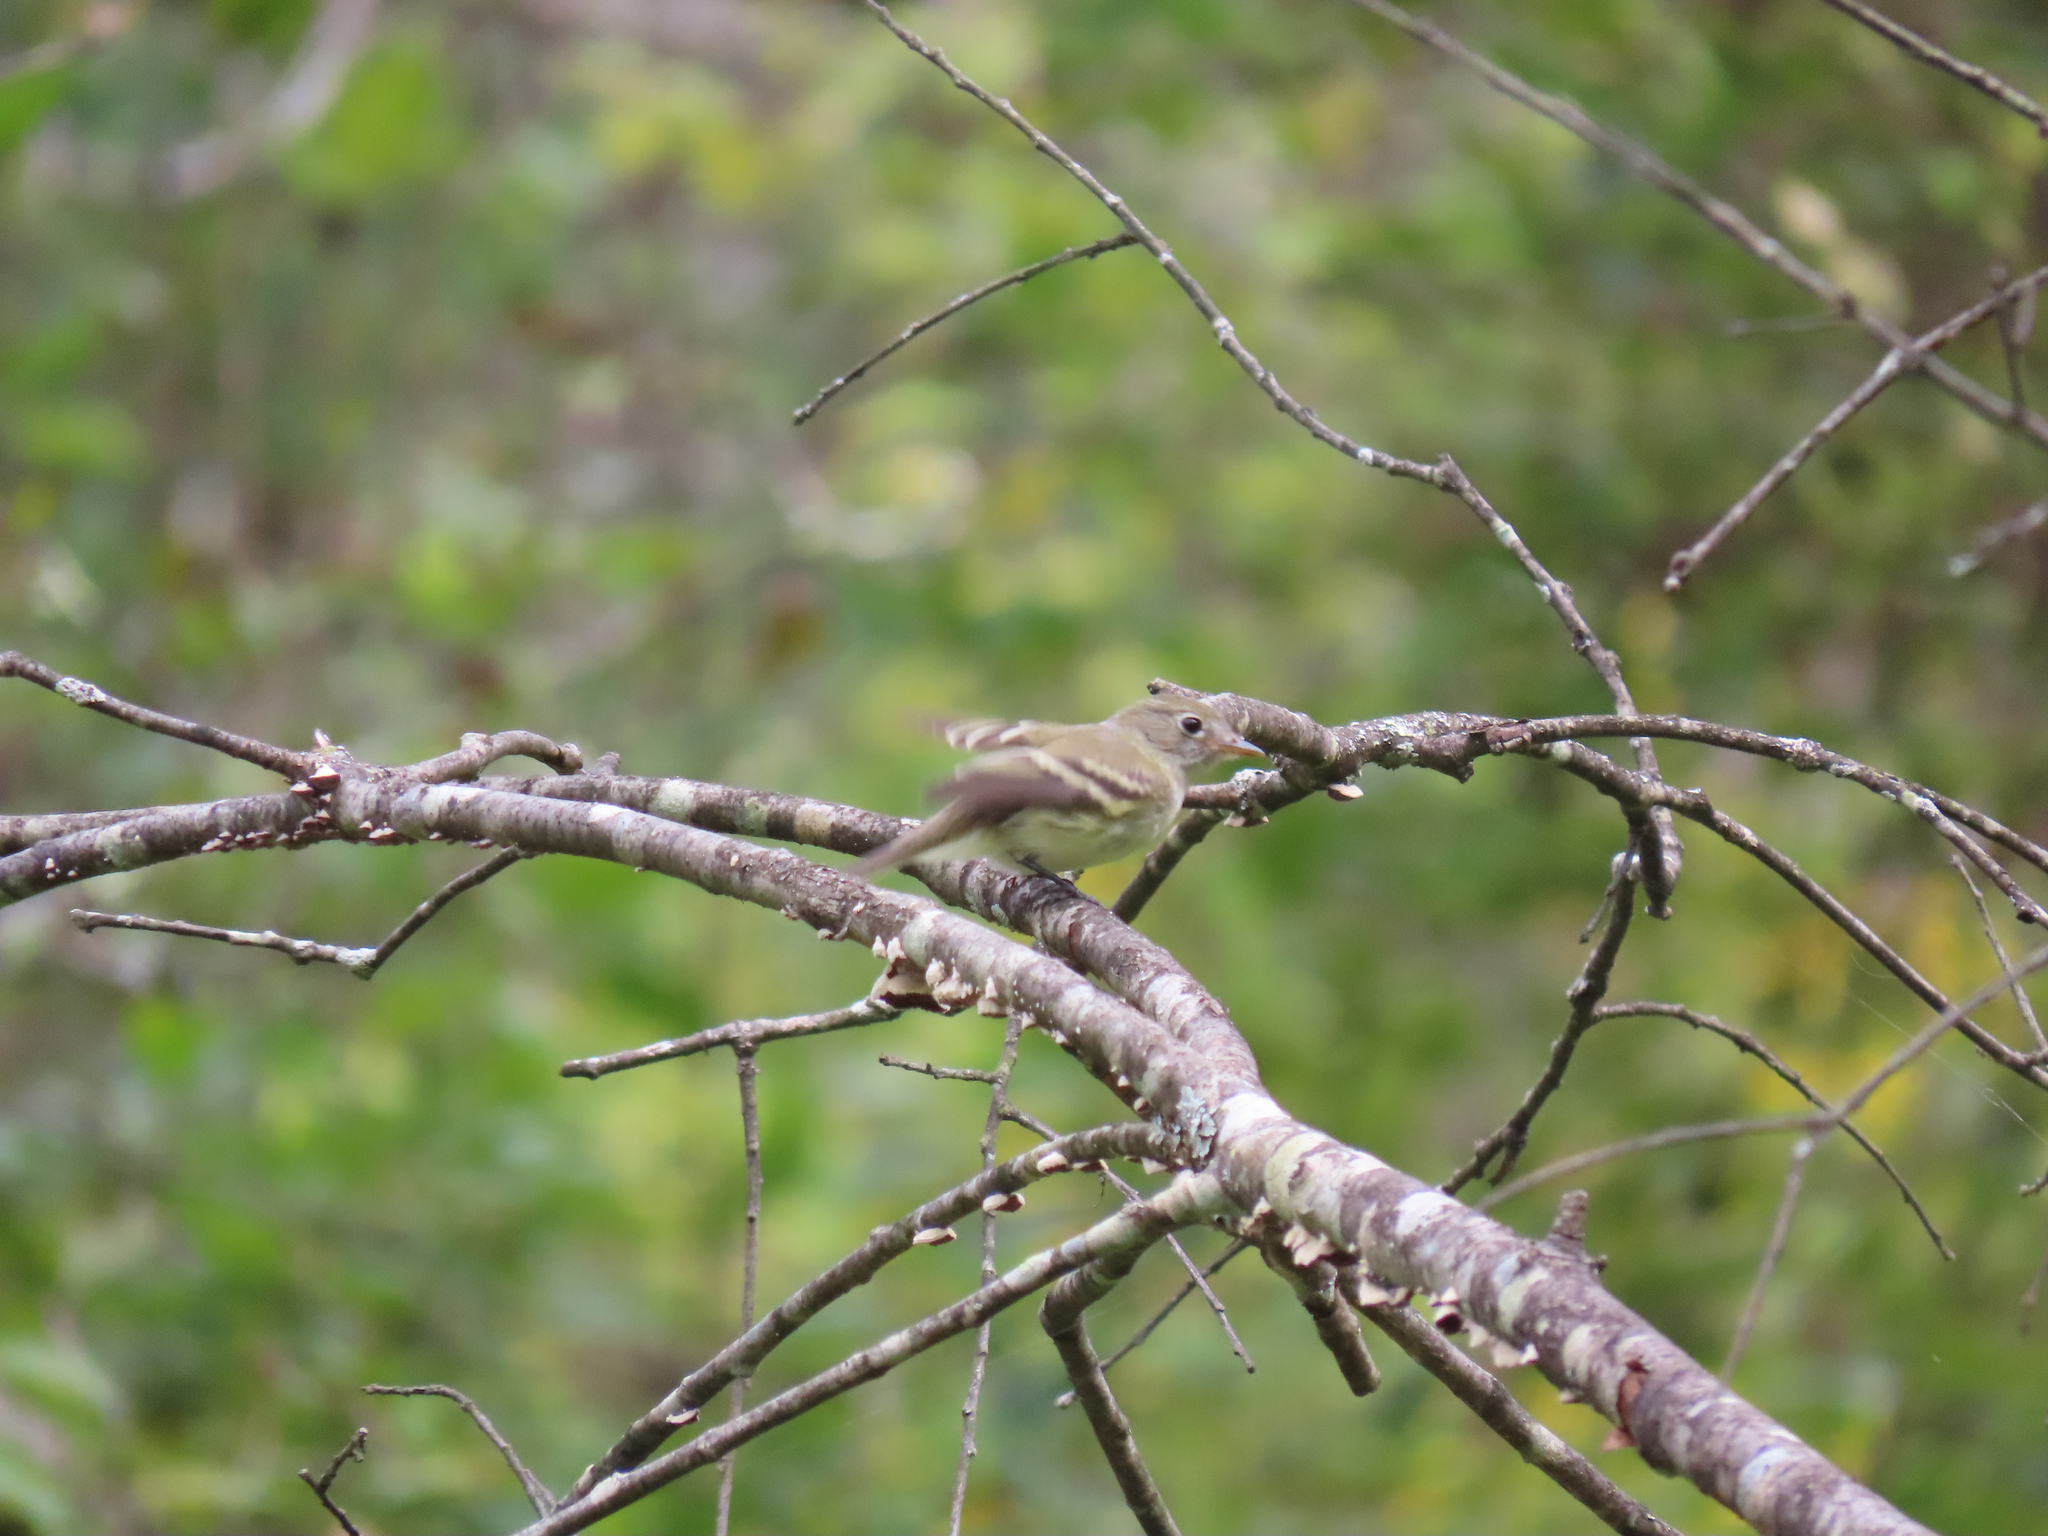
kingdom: Animalia
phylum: Chordata
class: Aves
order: Passeriformes
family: Tyrannidae
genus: Empidonax
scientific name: Empidonax minimus
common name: Least flycatcher
